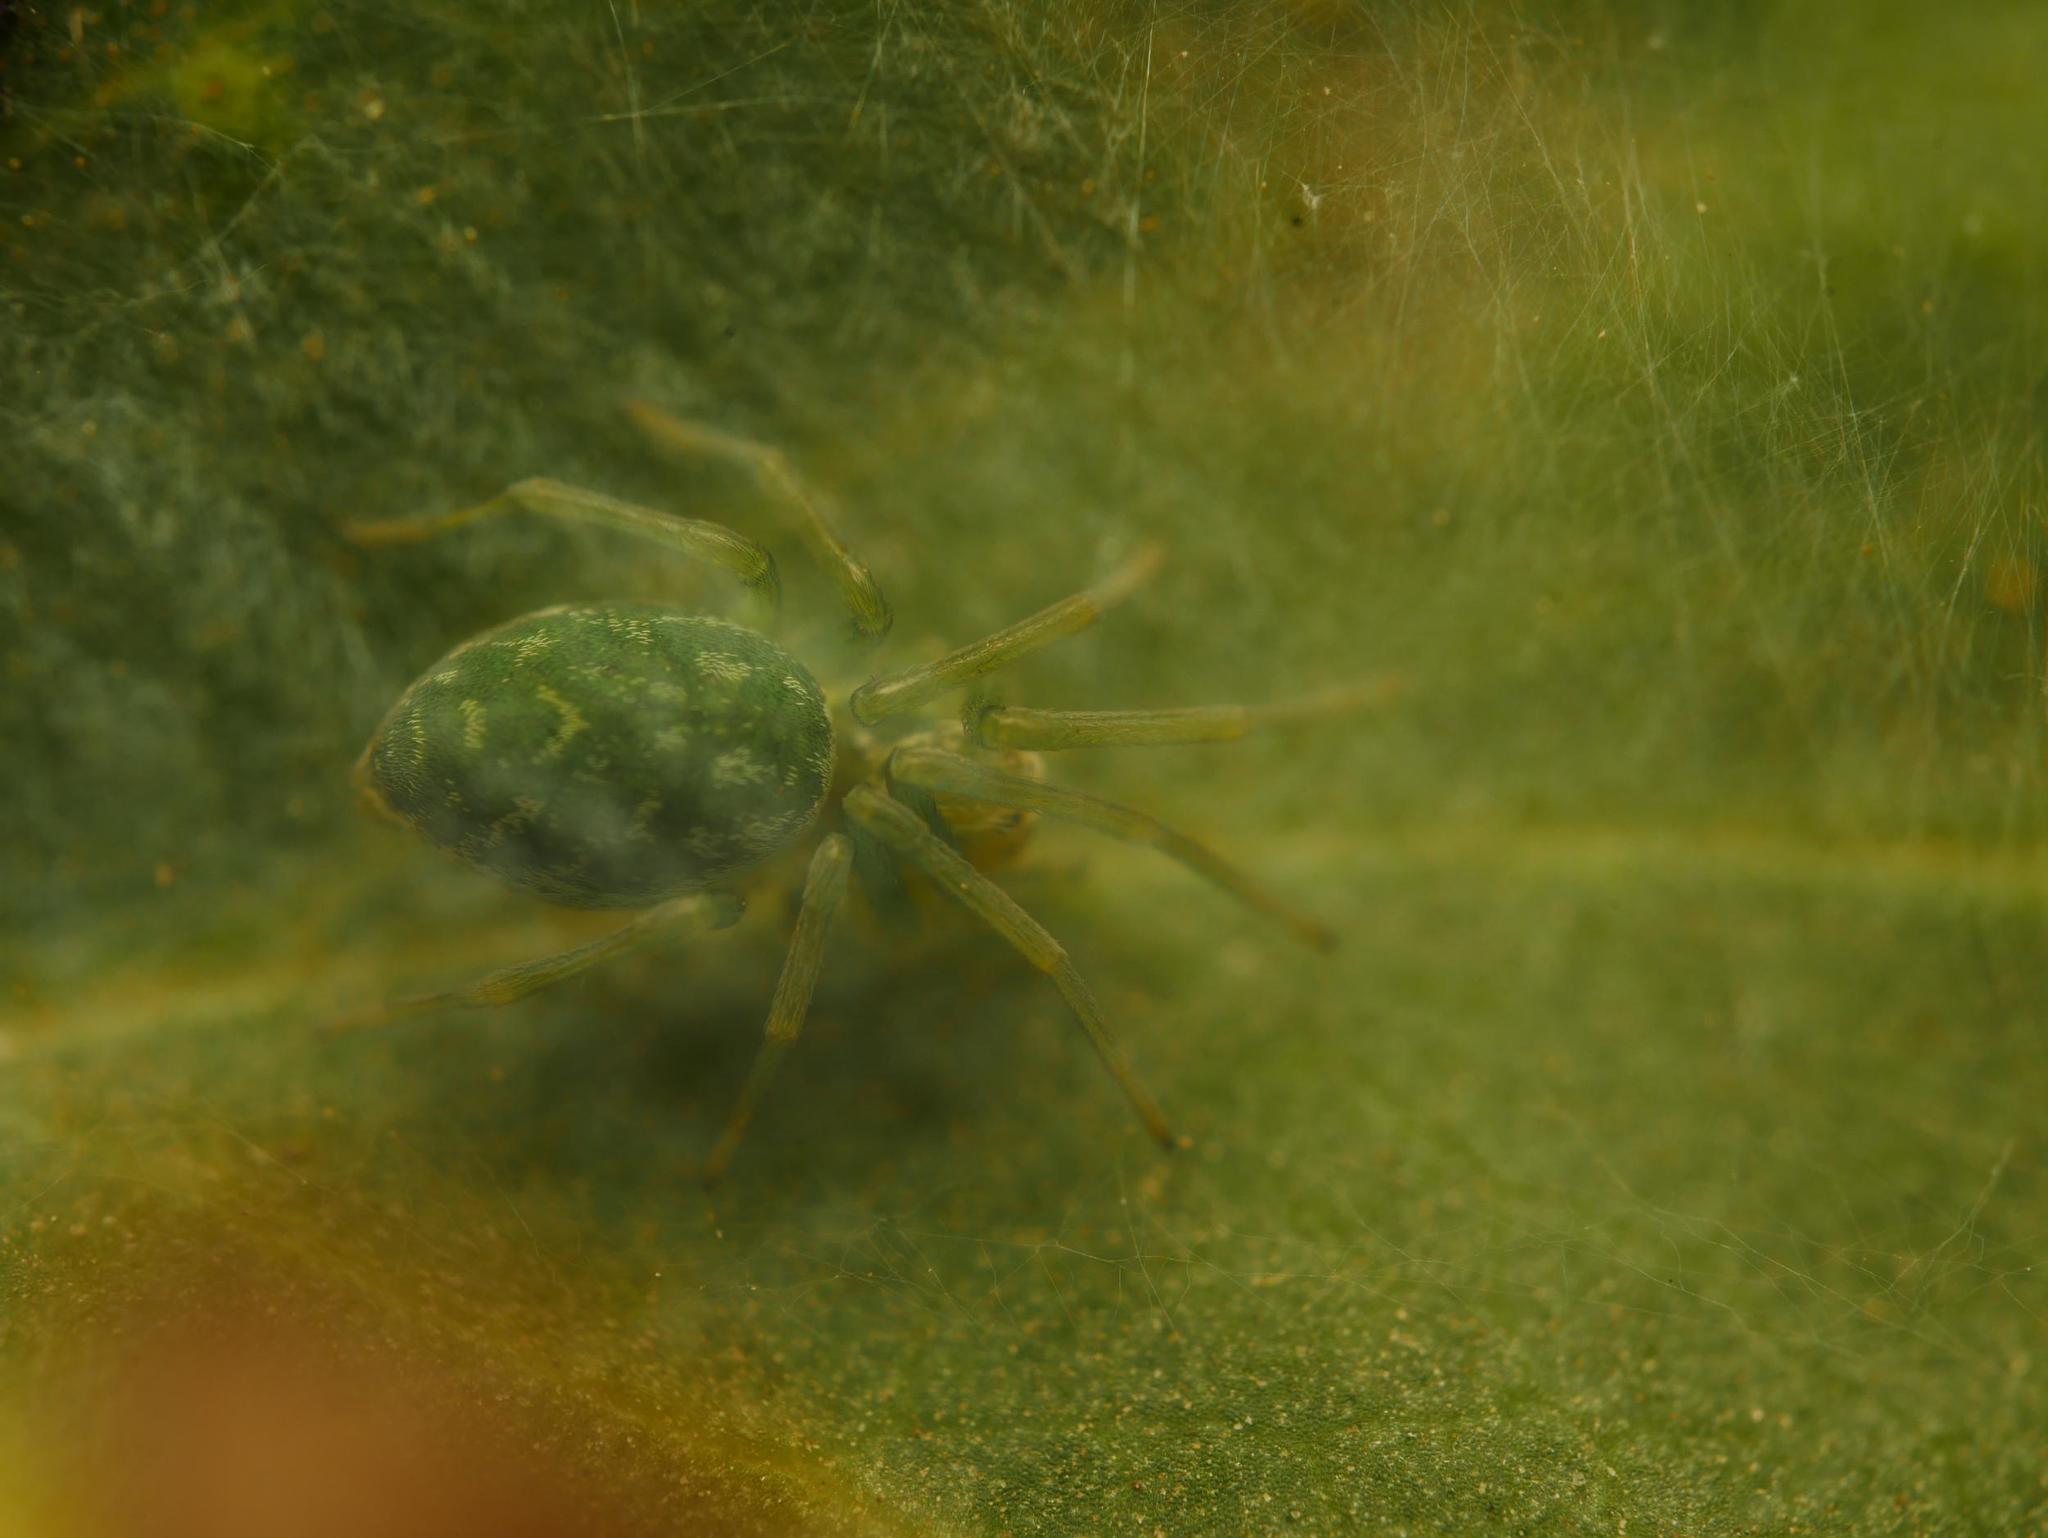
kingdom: Animalia
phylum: Arthropoda
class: Arachnida
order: Araneae
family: Dictynidae
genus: Nigma
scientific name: Nigma walckenaeri
